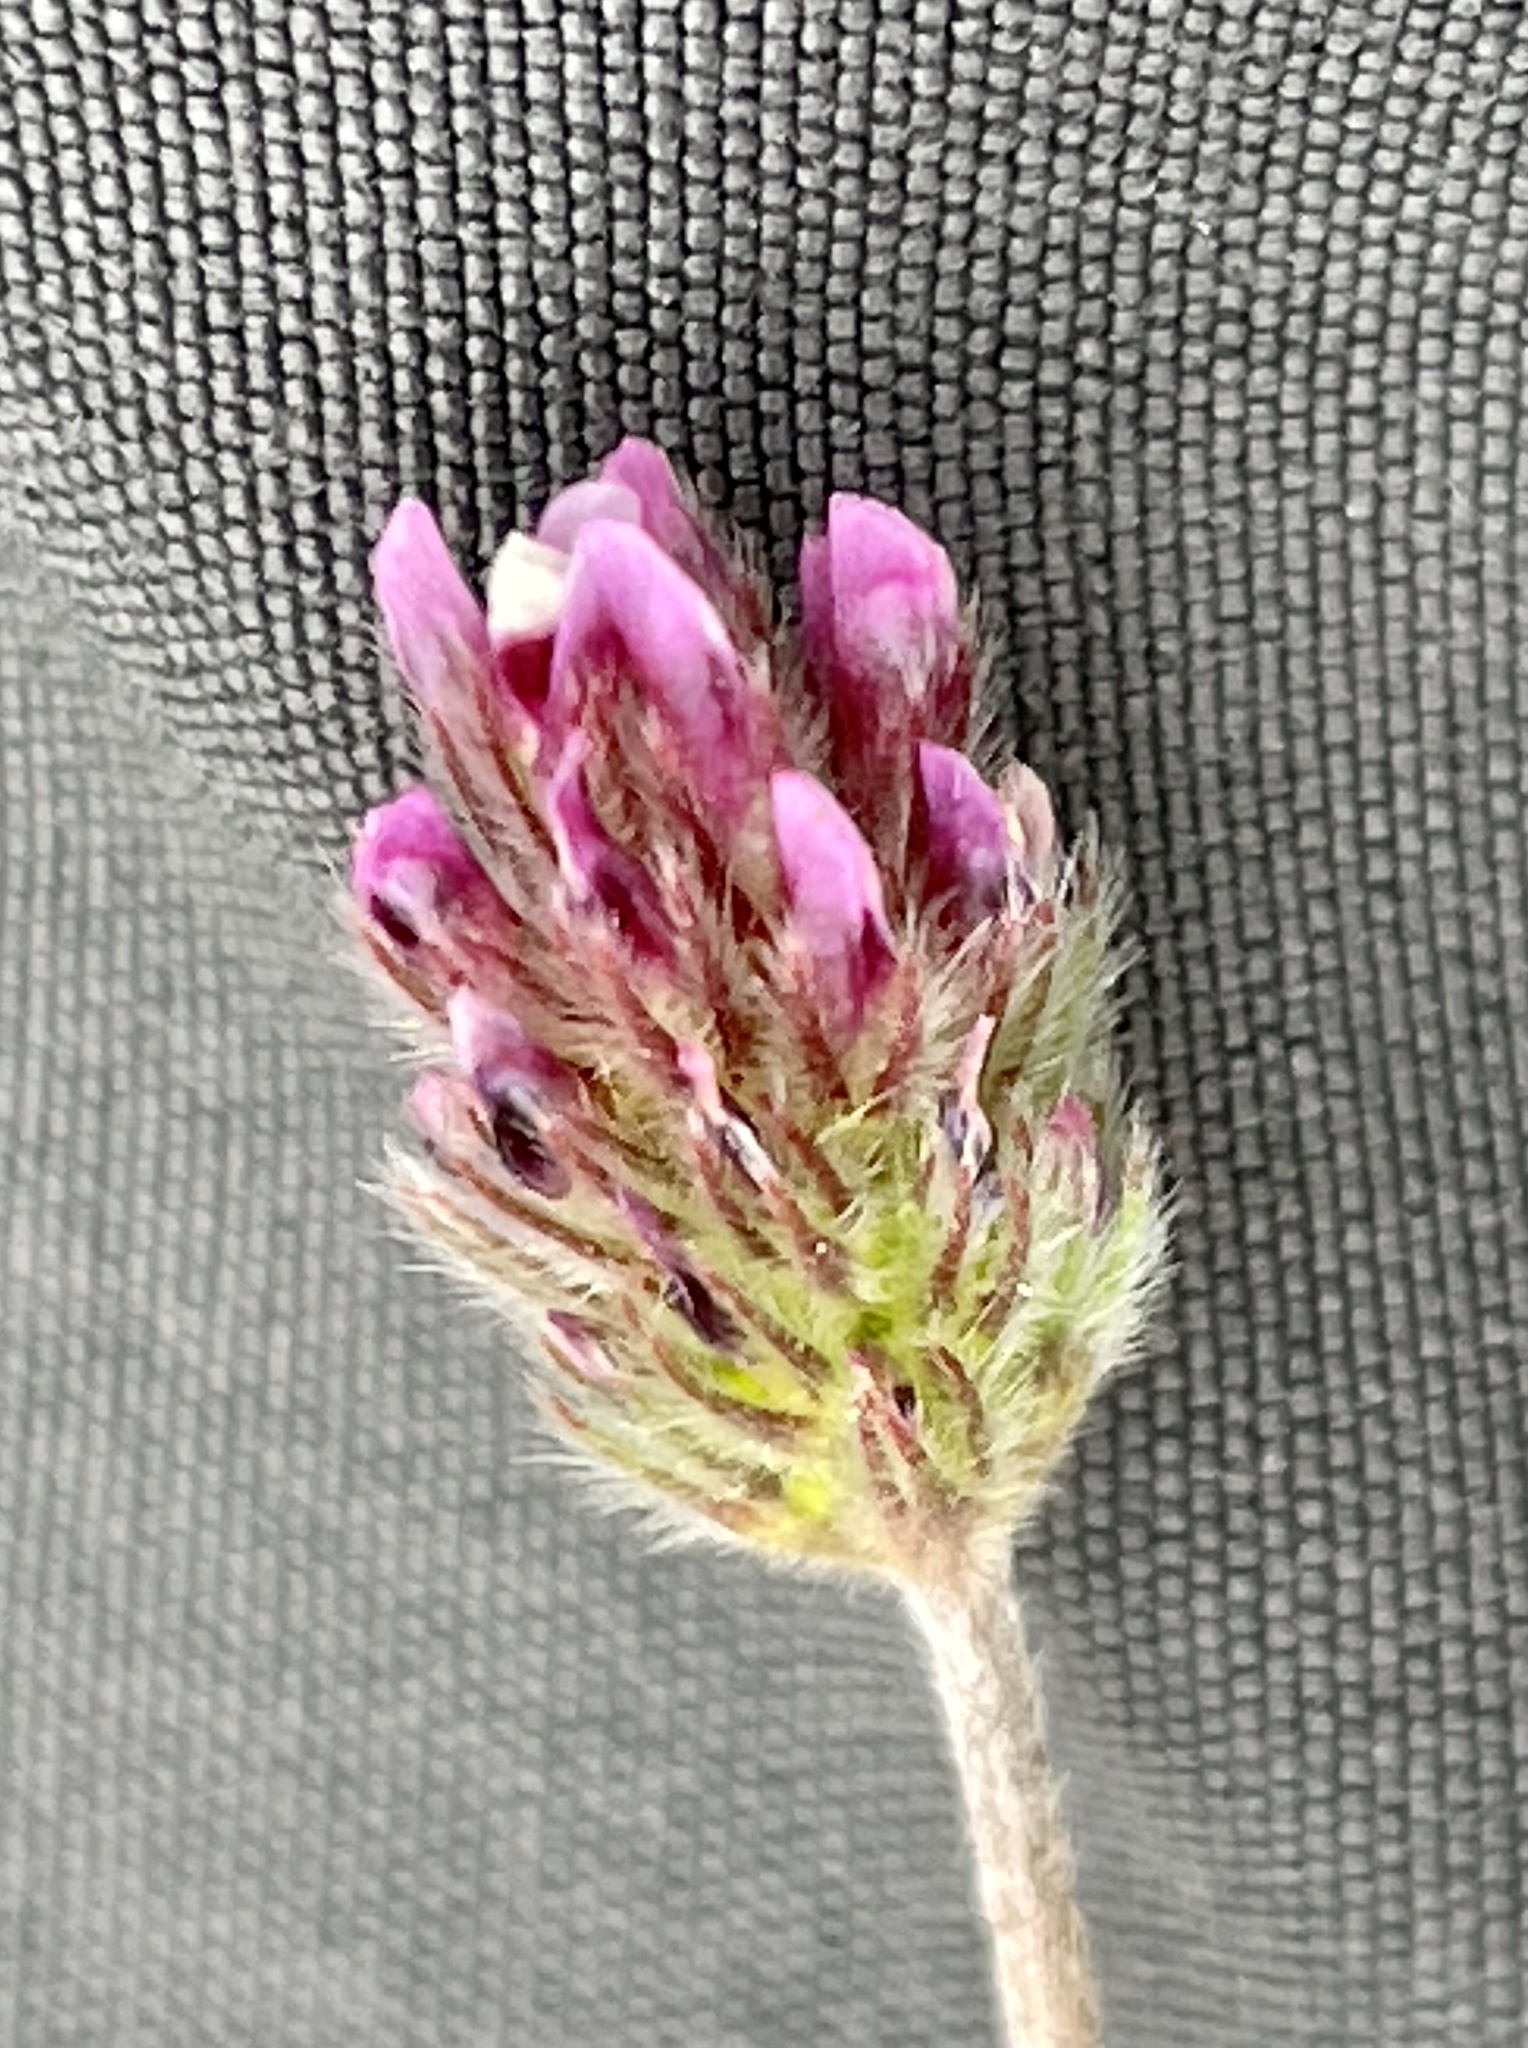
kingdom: Plantae
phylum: Tracheophyta
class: Magnoliopsida
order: Fabales
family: Fabaceae
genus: Trifolium
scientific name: Trifolium albopurpureum
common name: Rancheria clover
